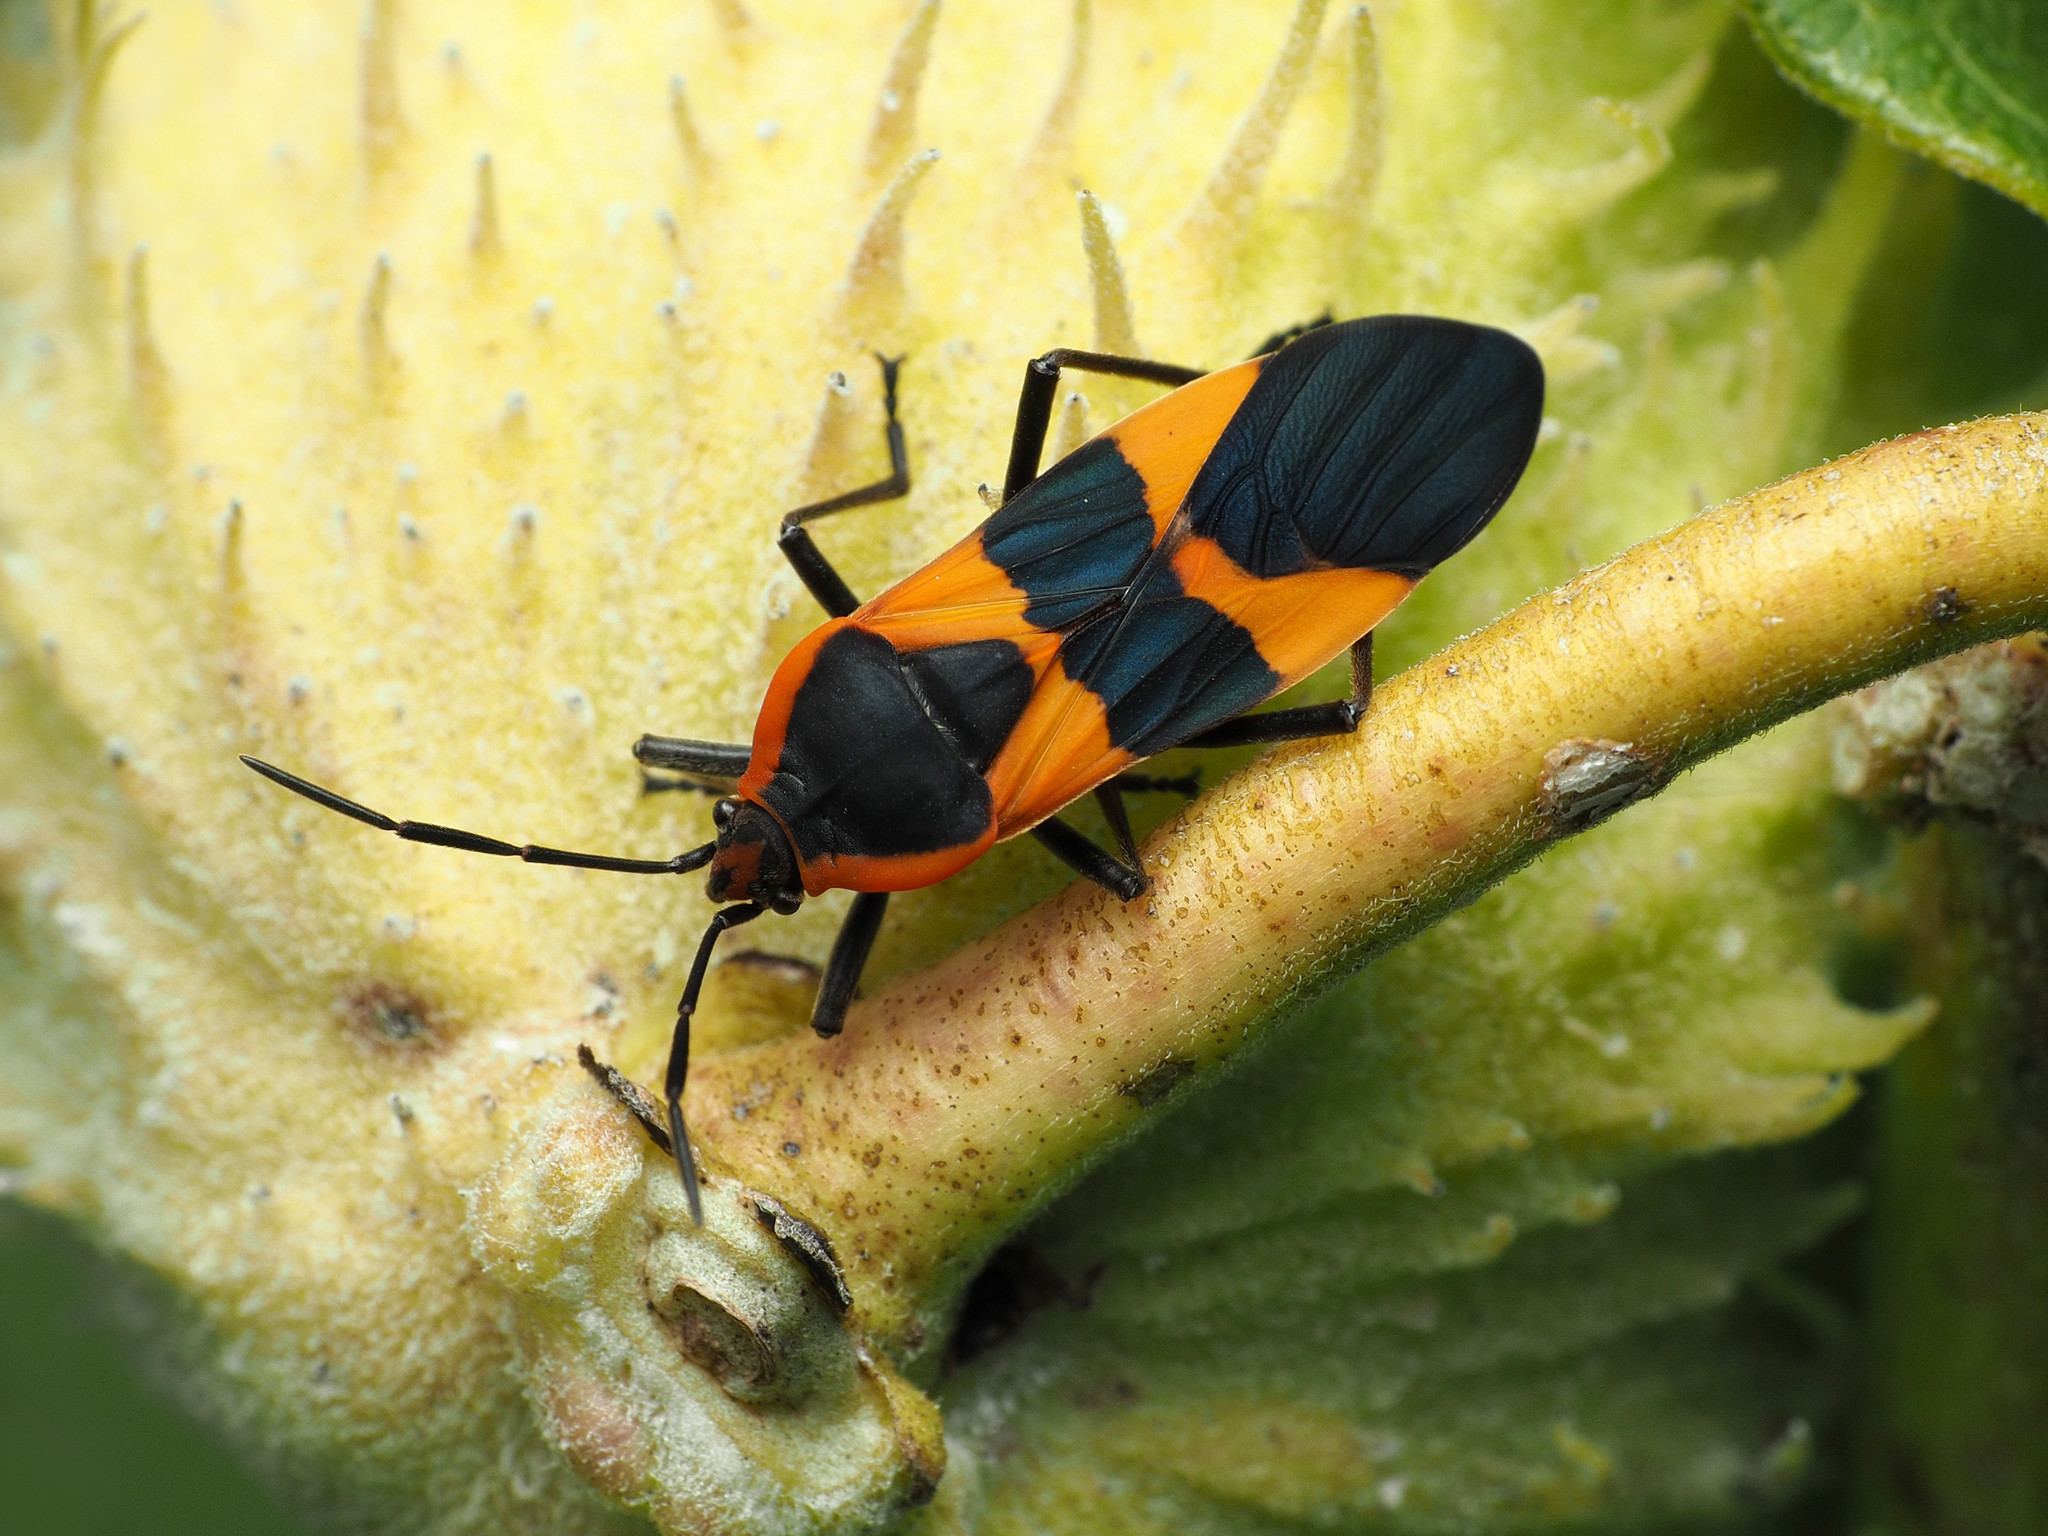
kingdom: Animalia
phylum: Arthropoda
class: Insecta
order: Hemiptera
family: Lygaeidae
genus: Oncopeltus
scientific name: Oncopeltus fasciatus
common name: Large milkweed bug
